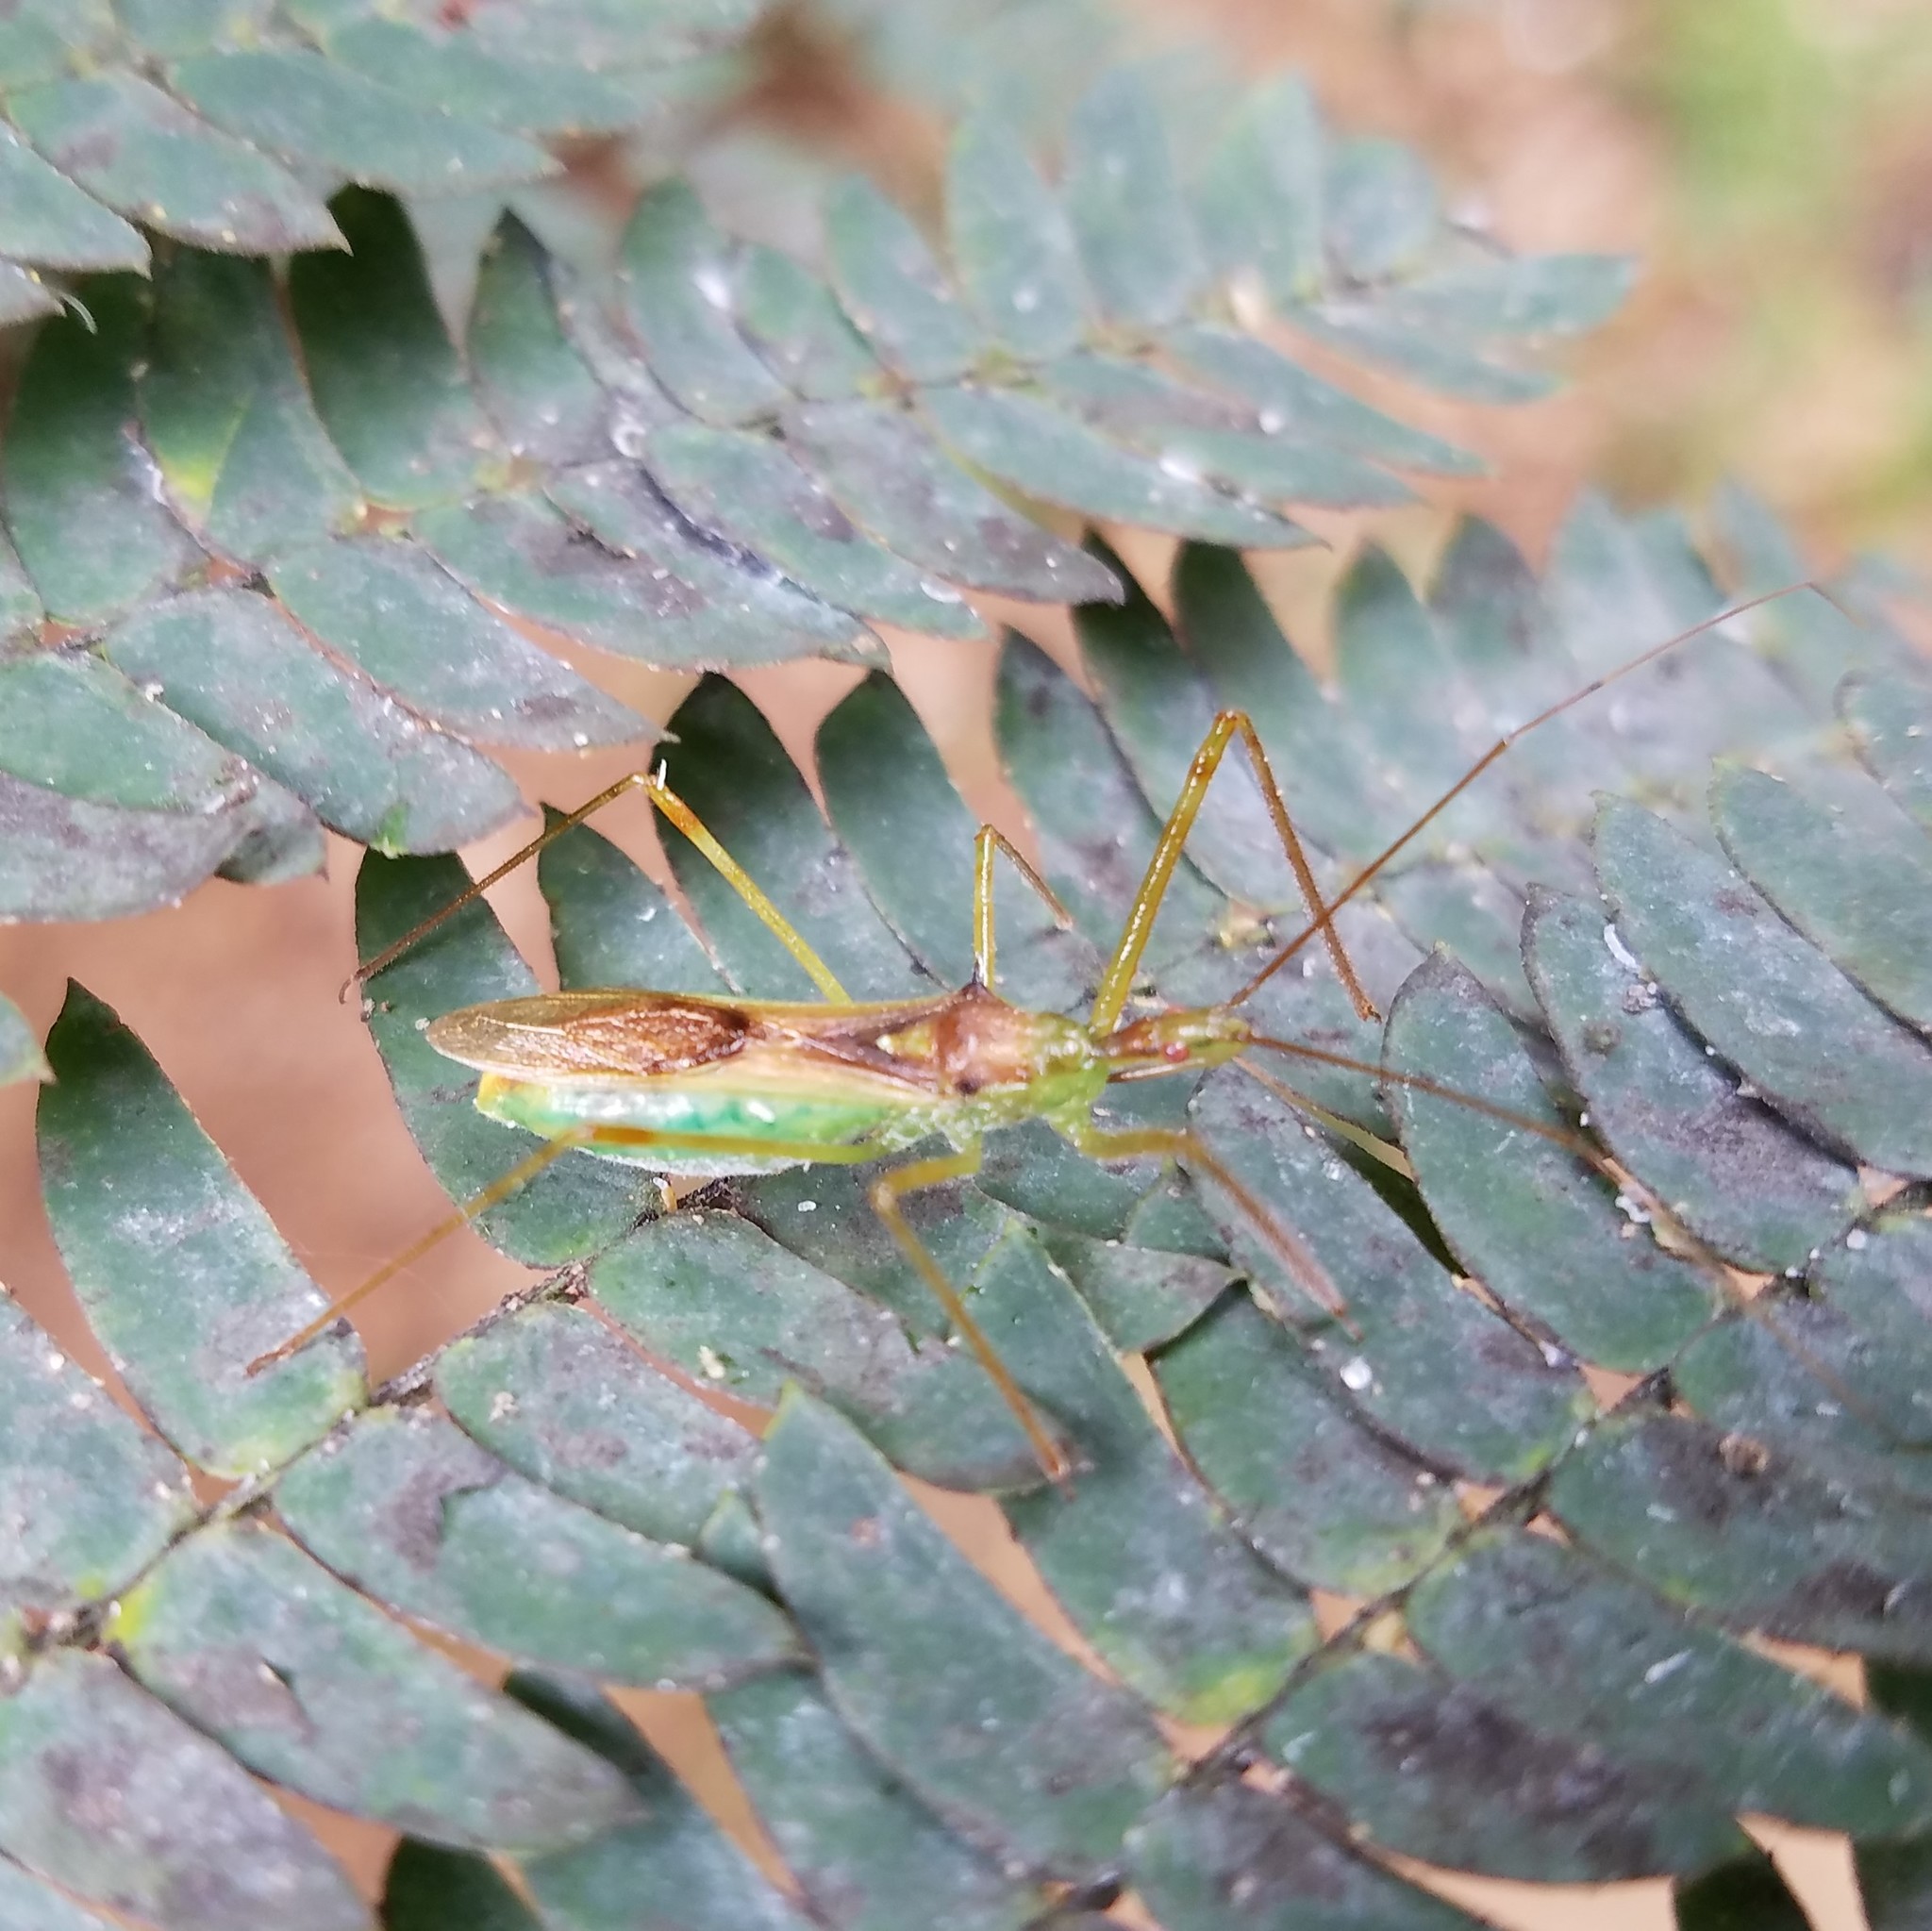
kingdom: Animalia
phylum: Arthropoda
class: Insecta
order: Hemiptera
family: Reduviidae
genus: Zelus
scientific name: Zelus luridus
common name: Pale green assassin bug
